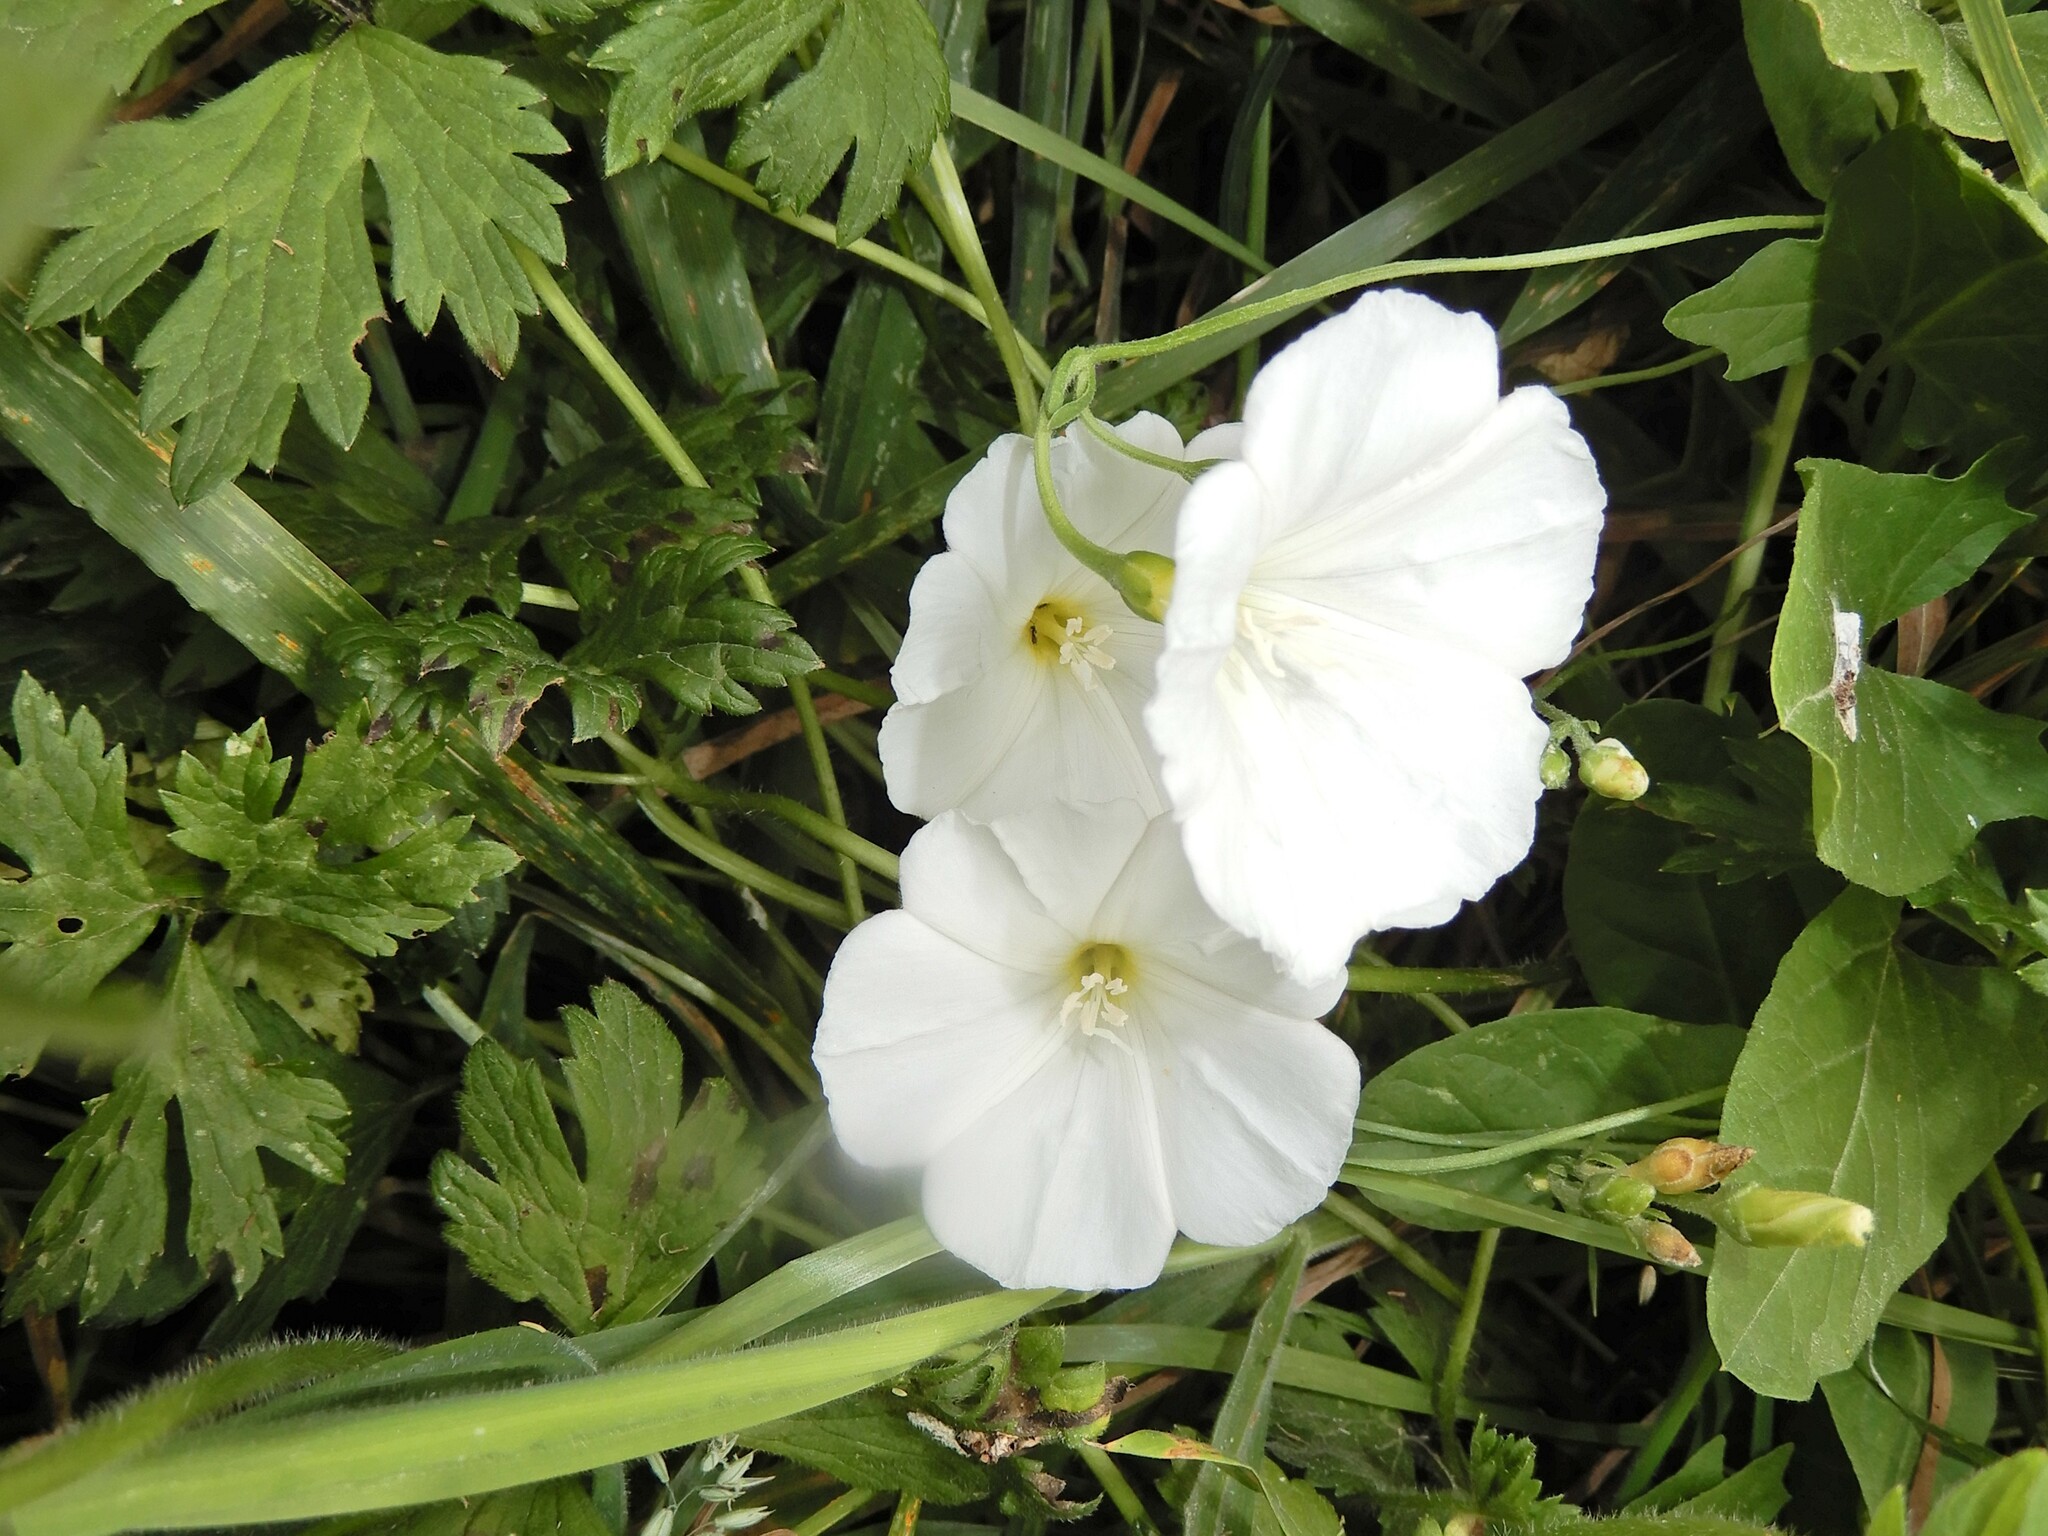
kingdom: Plantae
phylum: Tracheophyta
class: Magnoliopsida
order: Solanales
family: Convolvulaceae
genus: Convolvulus
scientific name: Convolvulus arvensis
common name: Field bindweed
